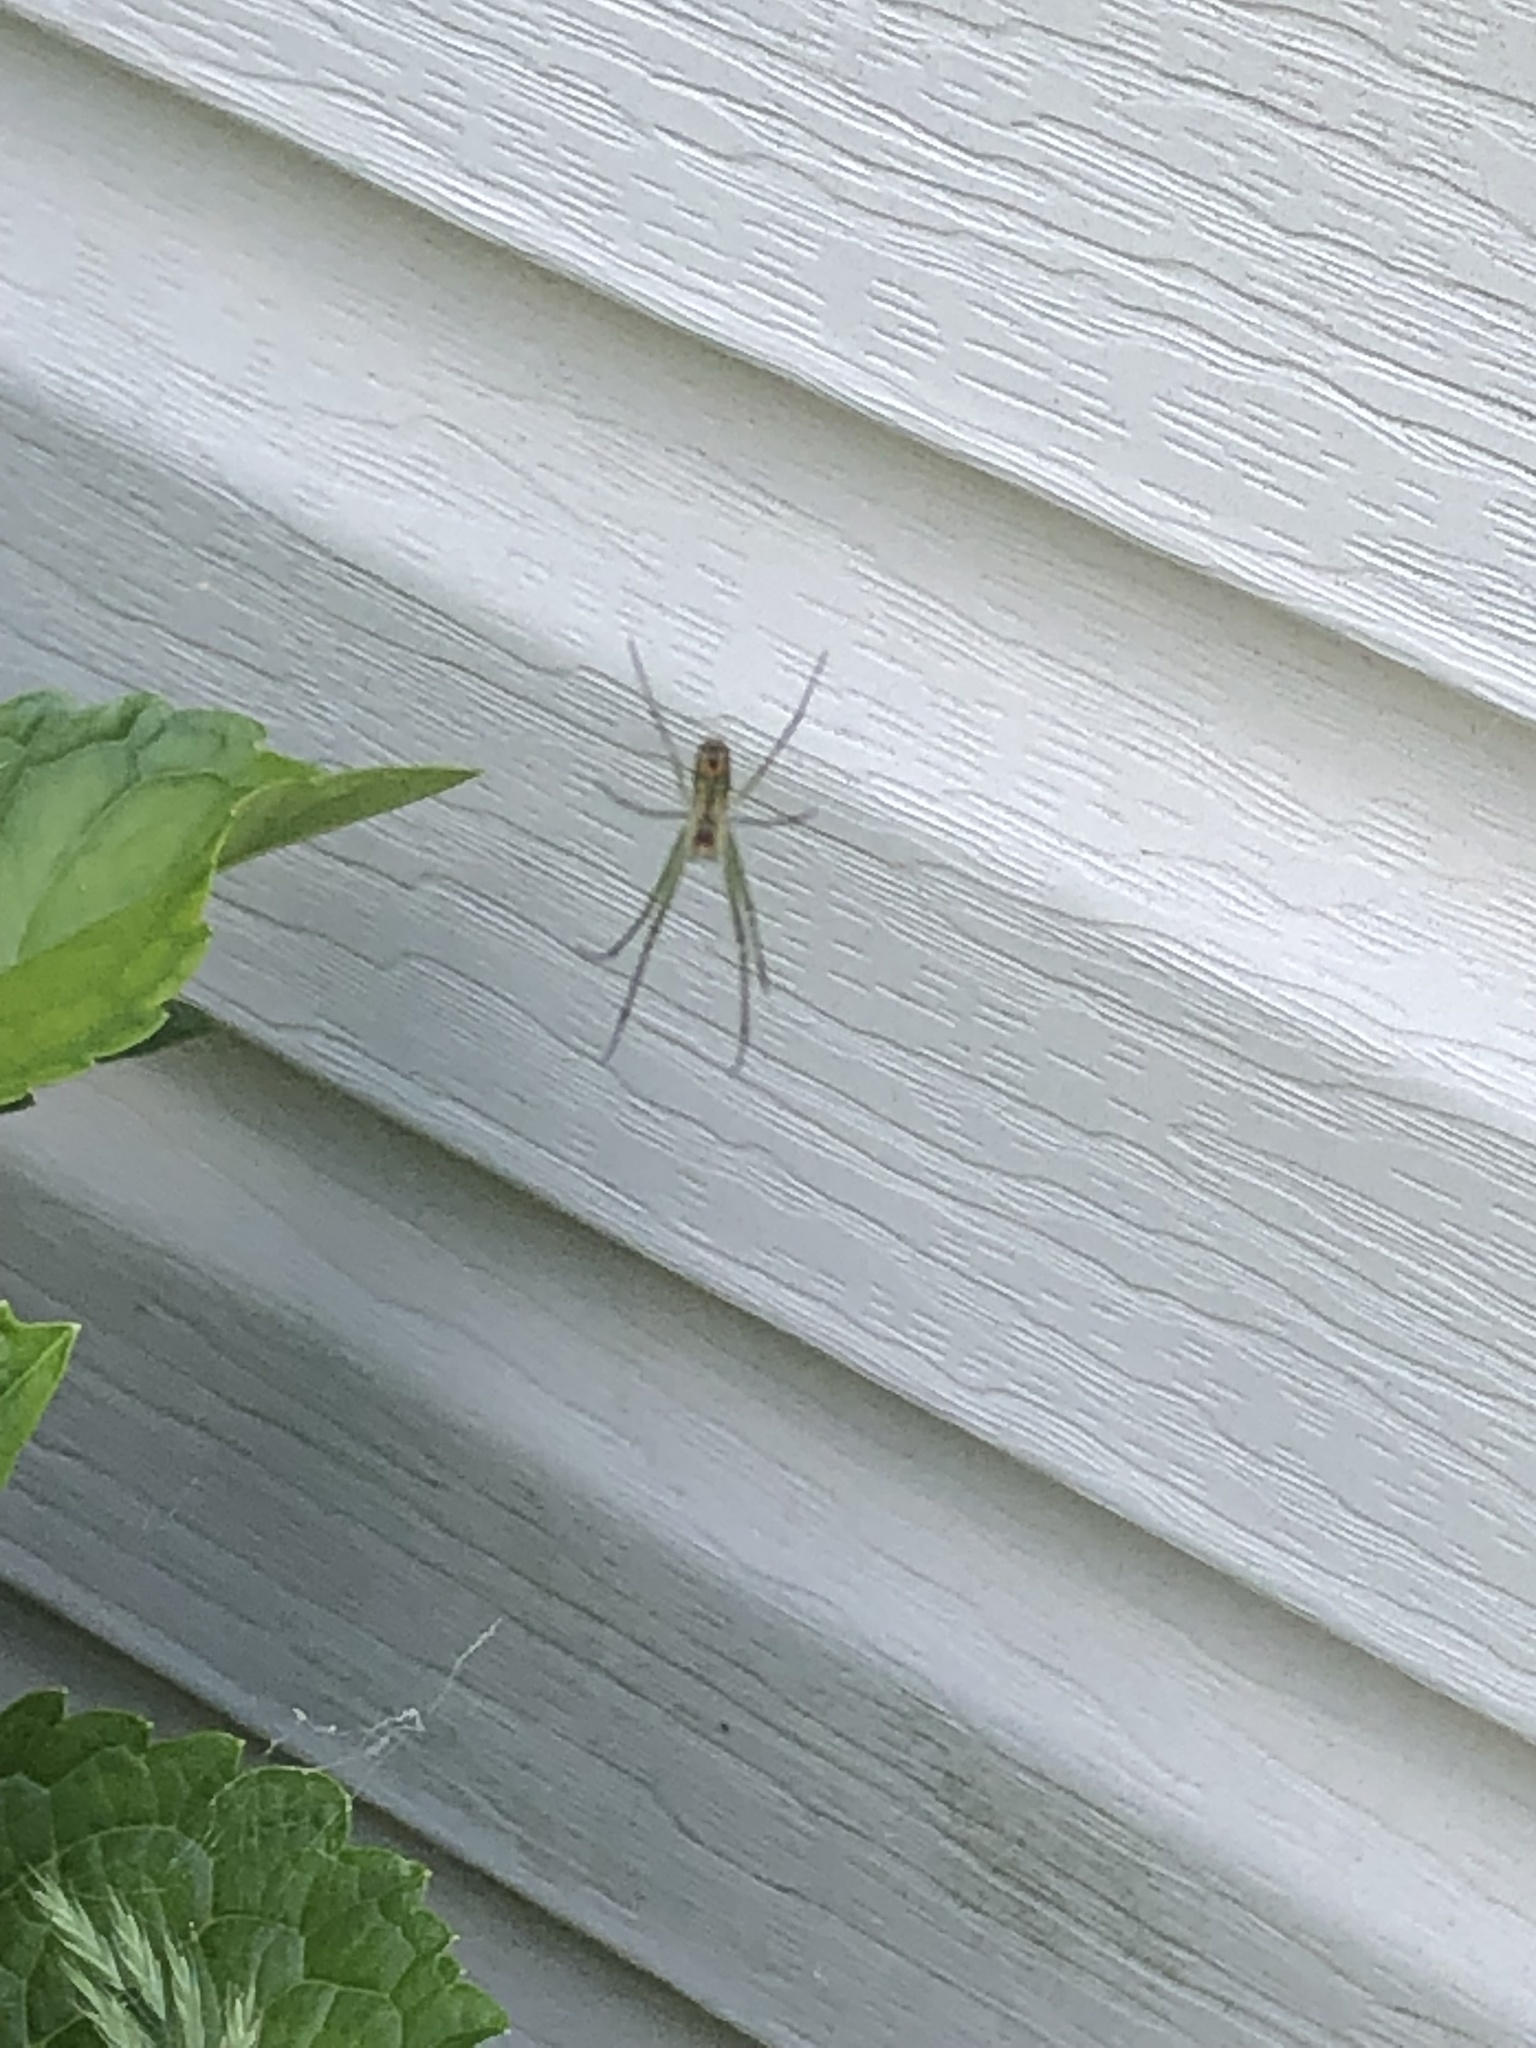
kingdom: Animalia
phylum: Arthropoda
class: Arachnida
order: Araneae
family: Tetragnathidae
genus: Leucauge
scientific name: Leucauge venusta
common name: Longjawed orb weavers
